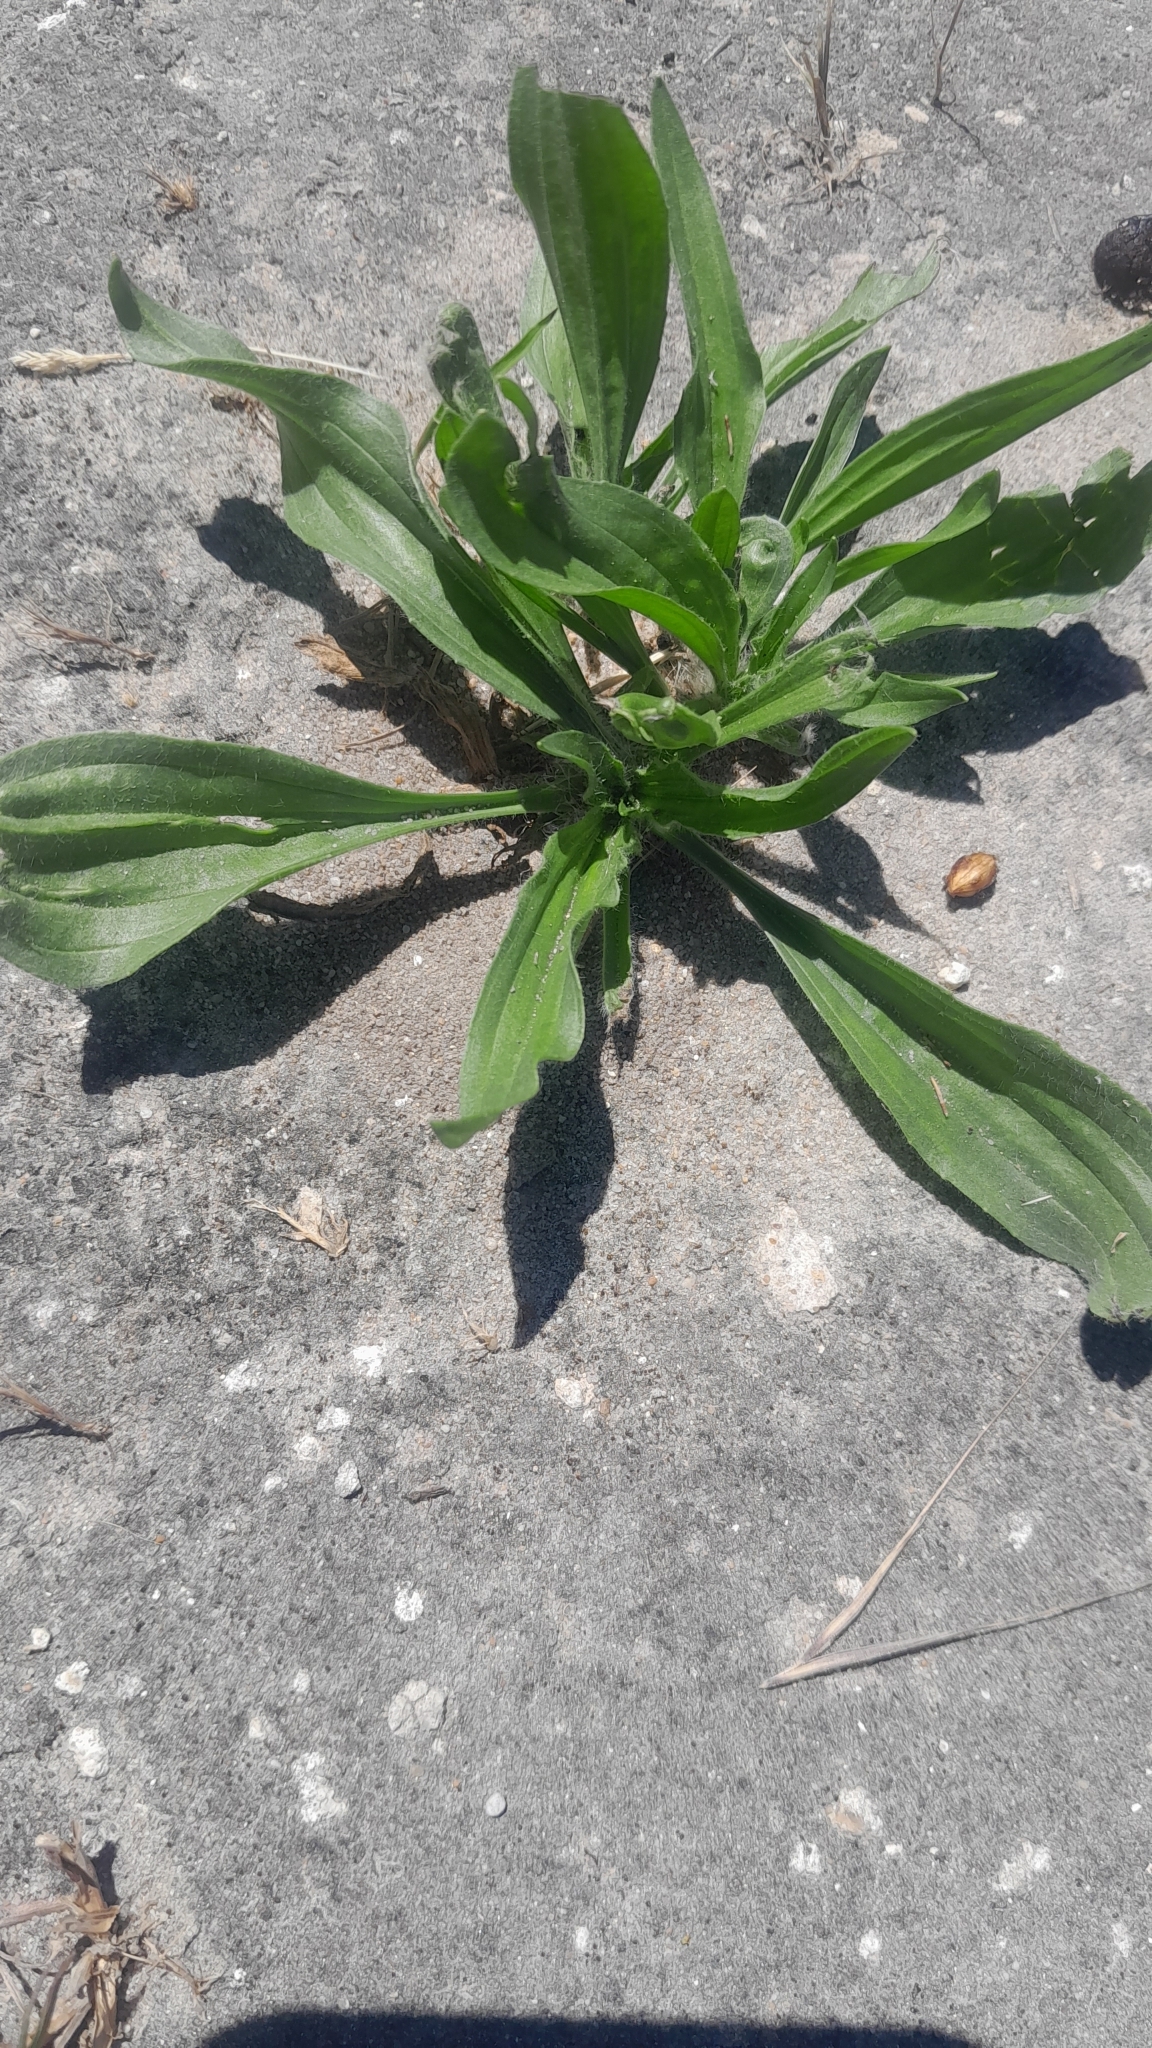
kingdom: Plantae
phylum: Tracheophyta
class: Magnoliopsida
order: Lamiales
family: Plantaginaceae
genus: Plantago
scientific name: Plantago lanceolata
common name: Ribwort plantain
